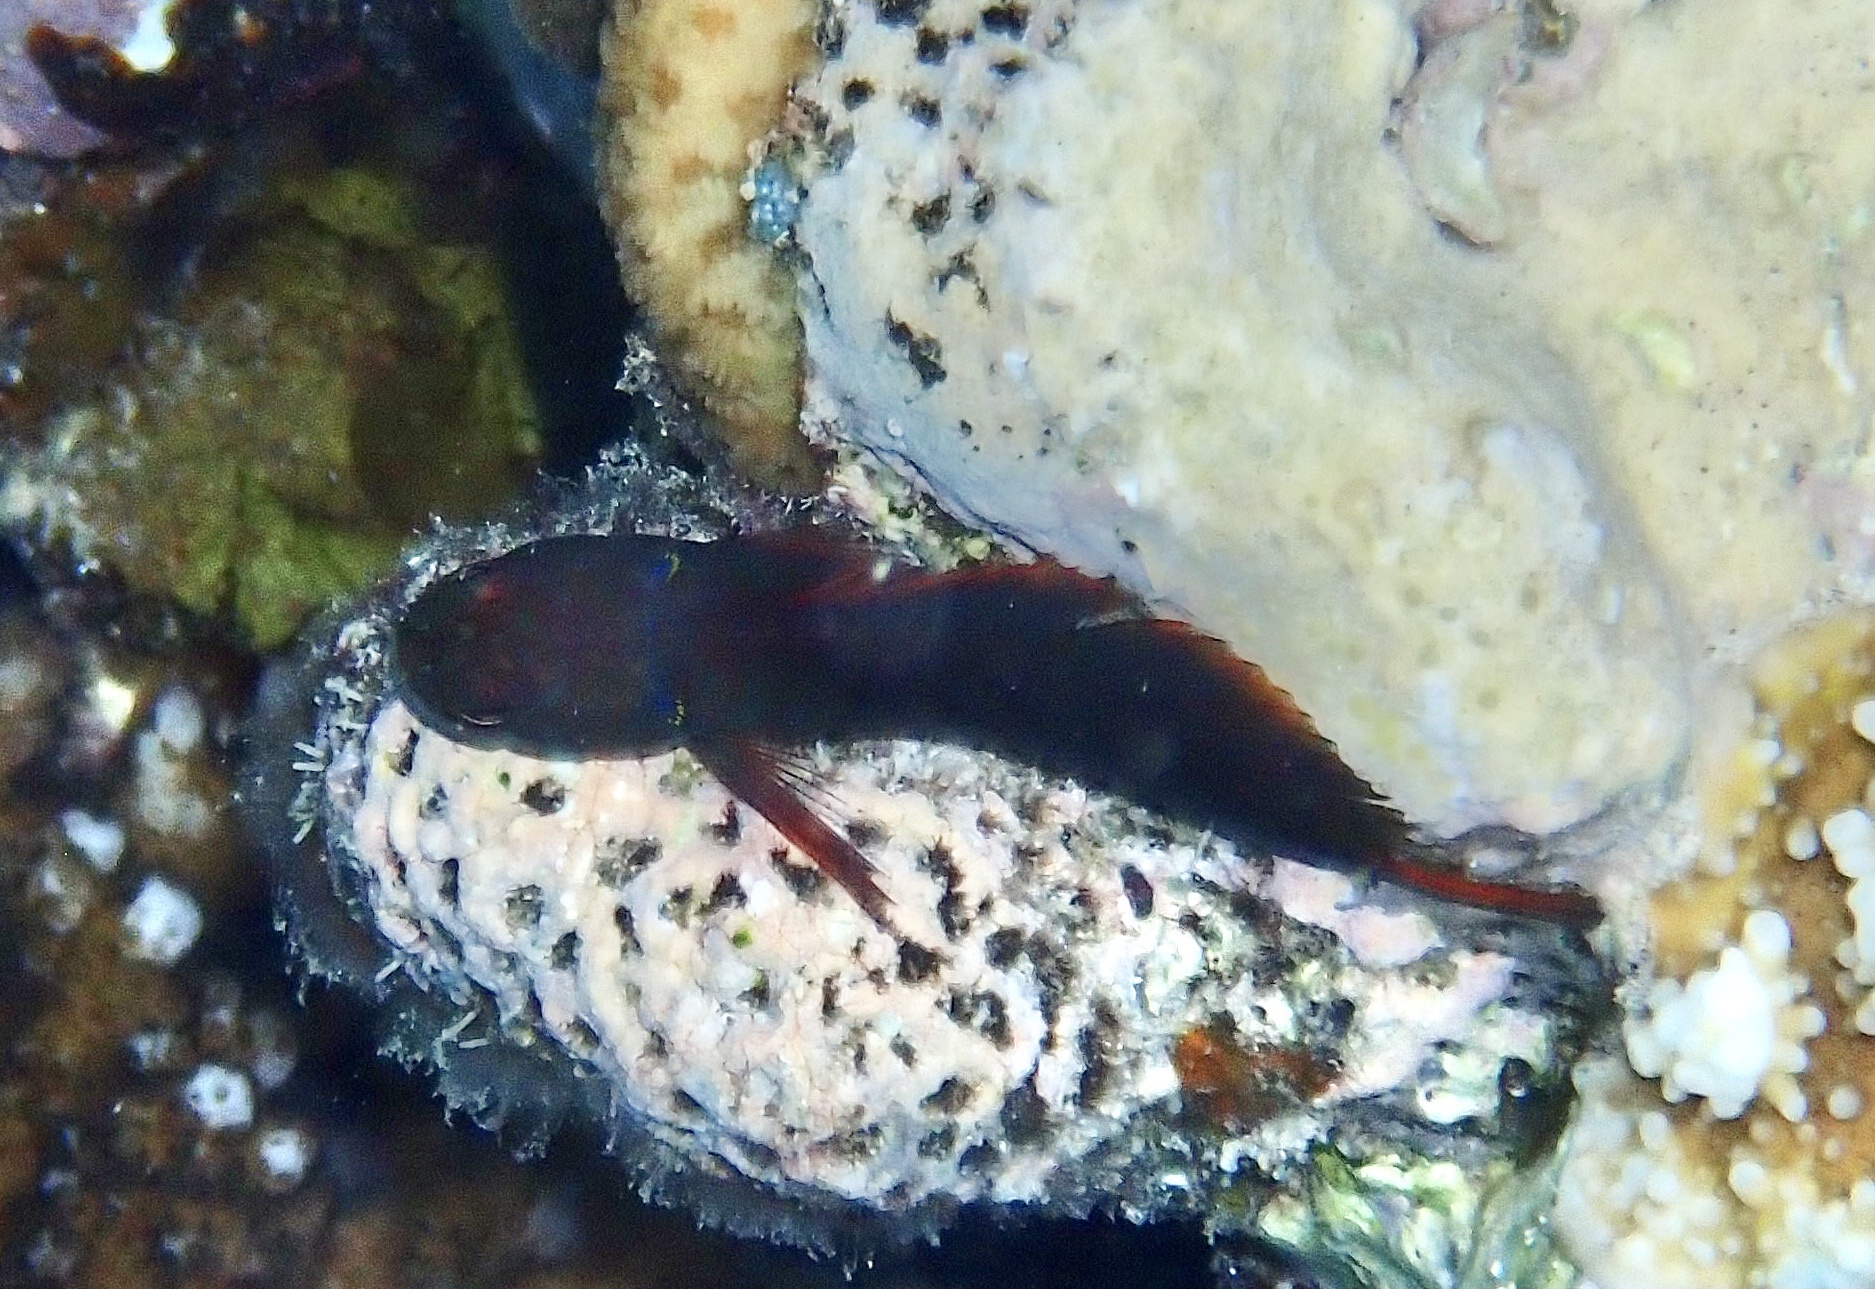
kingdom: Animalia
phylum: Chordata
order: Perciformes
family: Blenniidae
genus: Cirripectes
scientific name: Cirripectes castaneus
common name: Chestnut blenny
